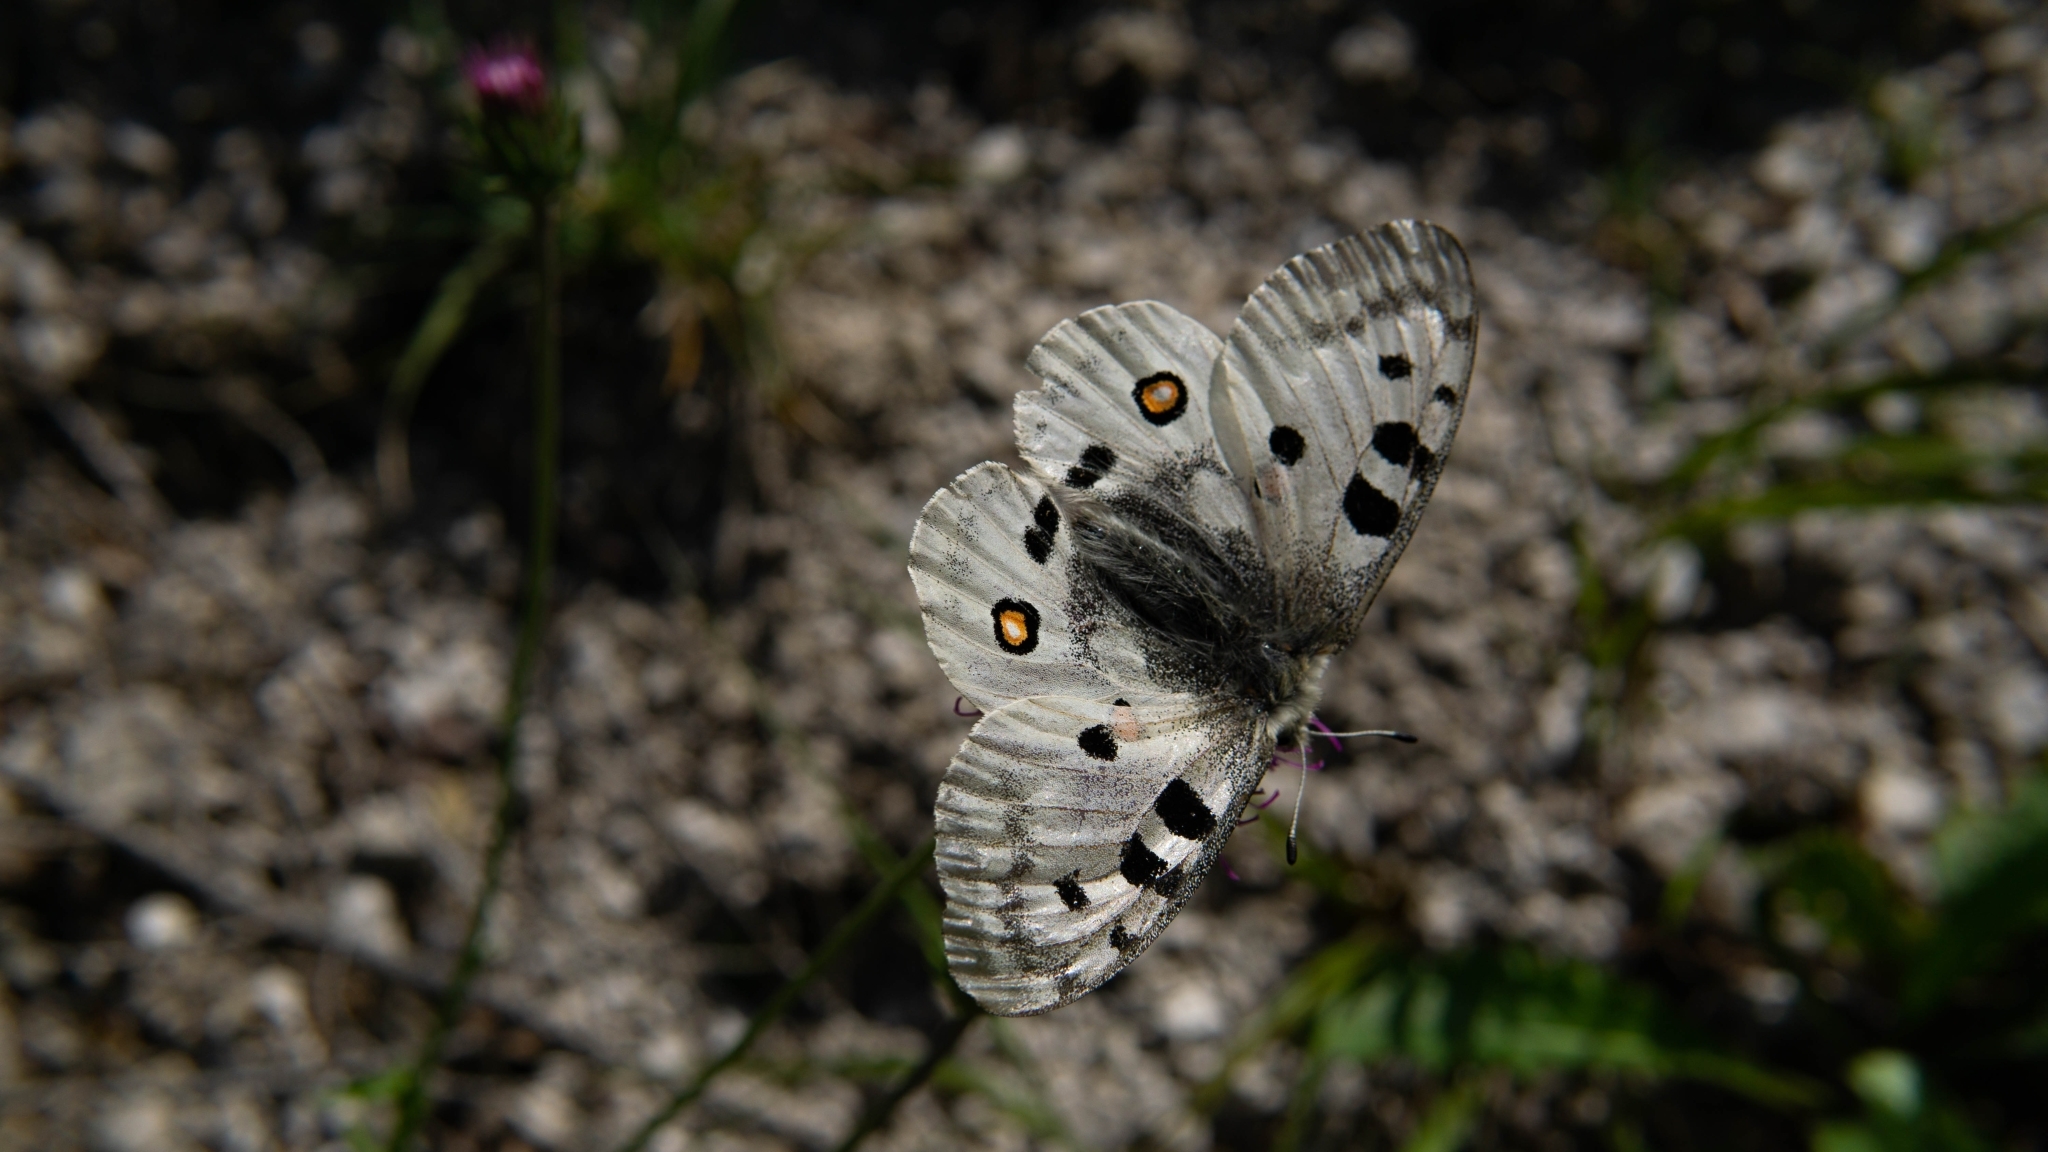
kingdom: Animalia
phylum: Arthropoda
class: Insecta
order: Lepidoptera
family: Papilionidae
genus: Parnassius
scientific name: Parnassius apollo
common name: Apollo
